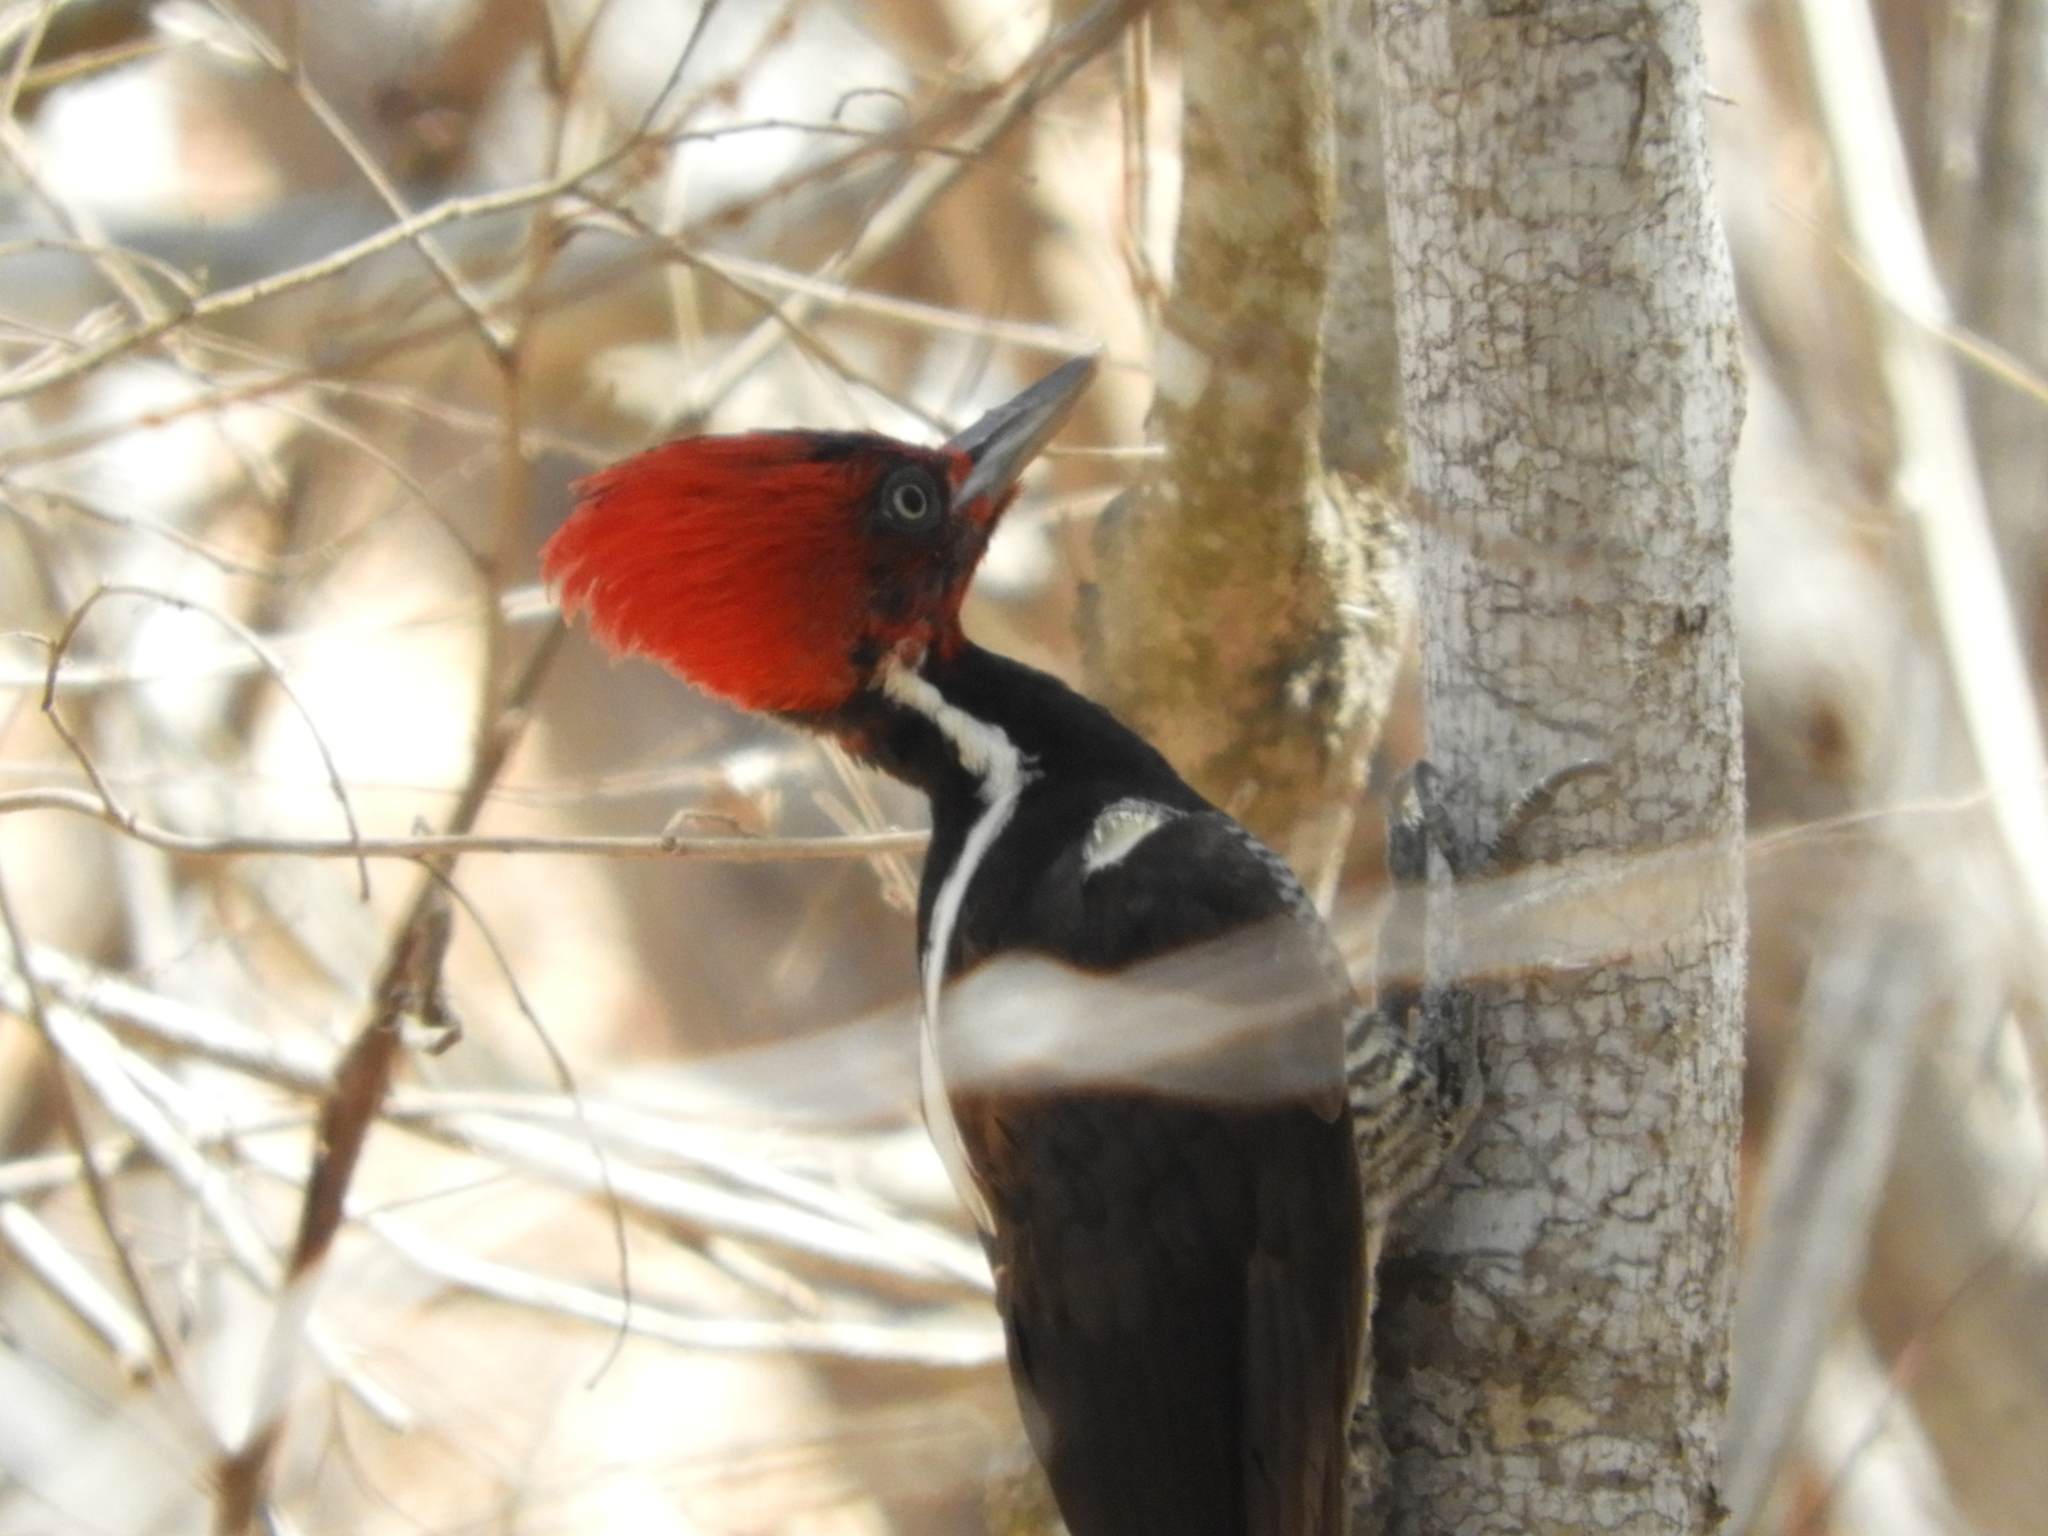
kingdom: Animalia
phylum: Chordata
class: Aves
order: Piciformes
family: Picidae
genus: Campephilus
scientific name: Campephilus guatemalensis
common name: Pale-billed woodpecker
